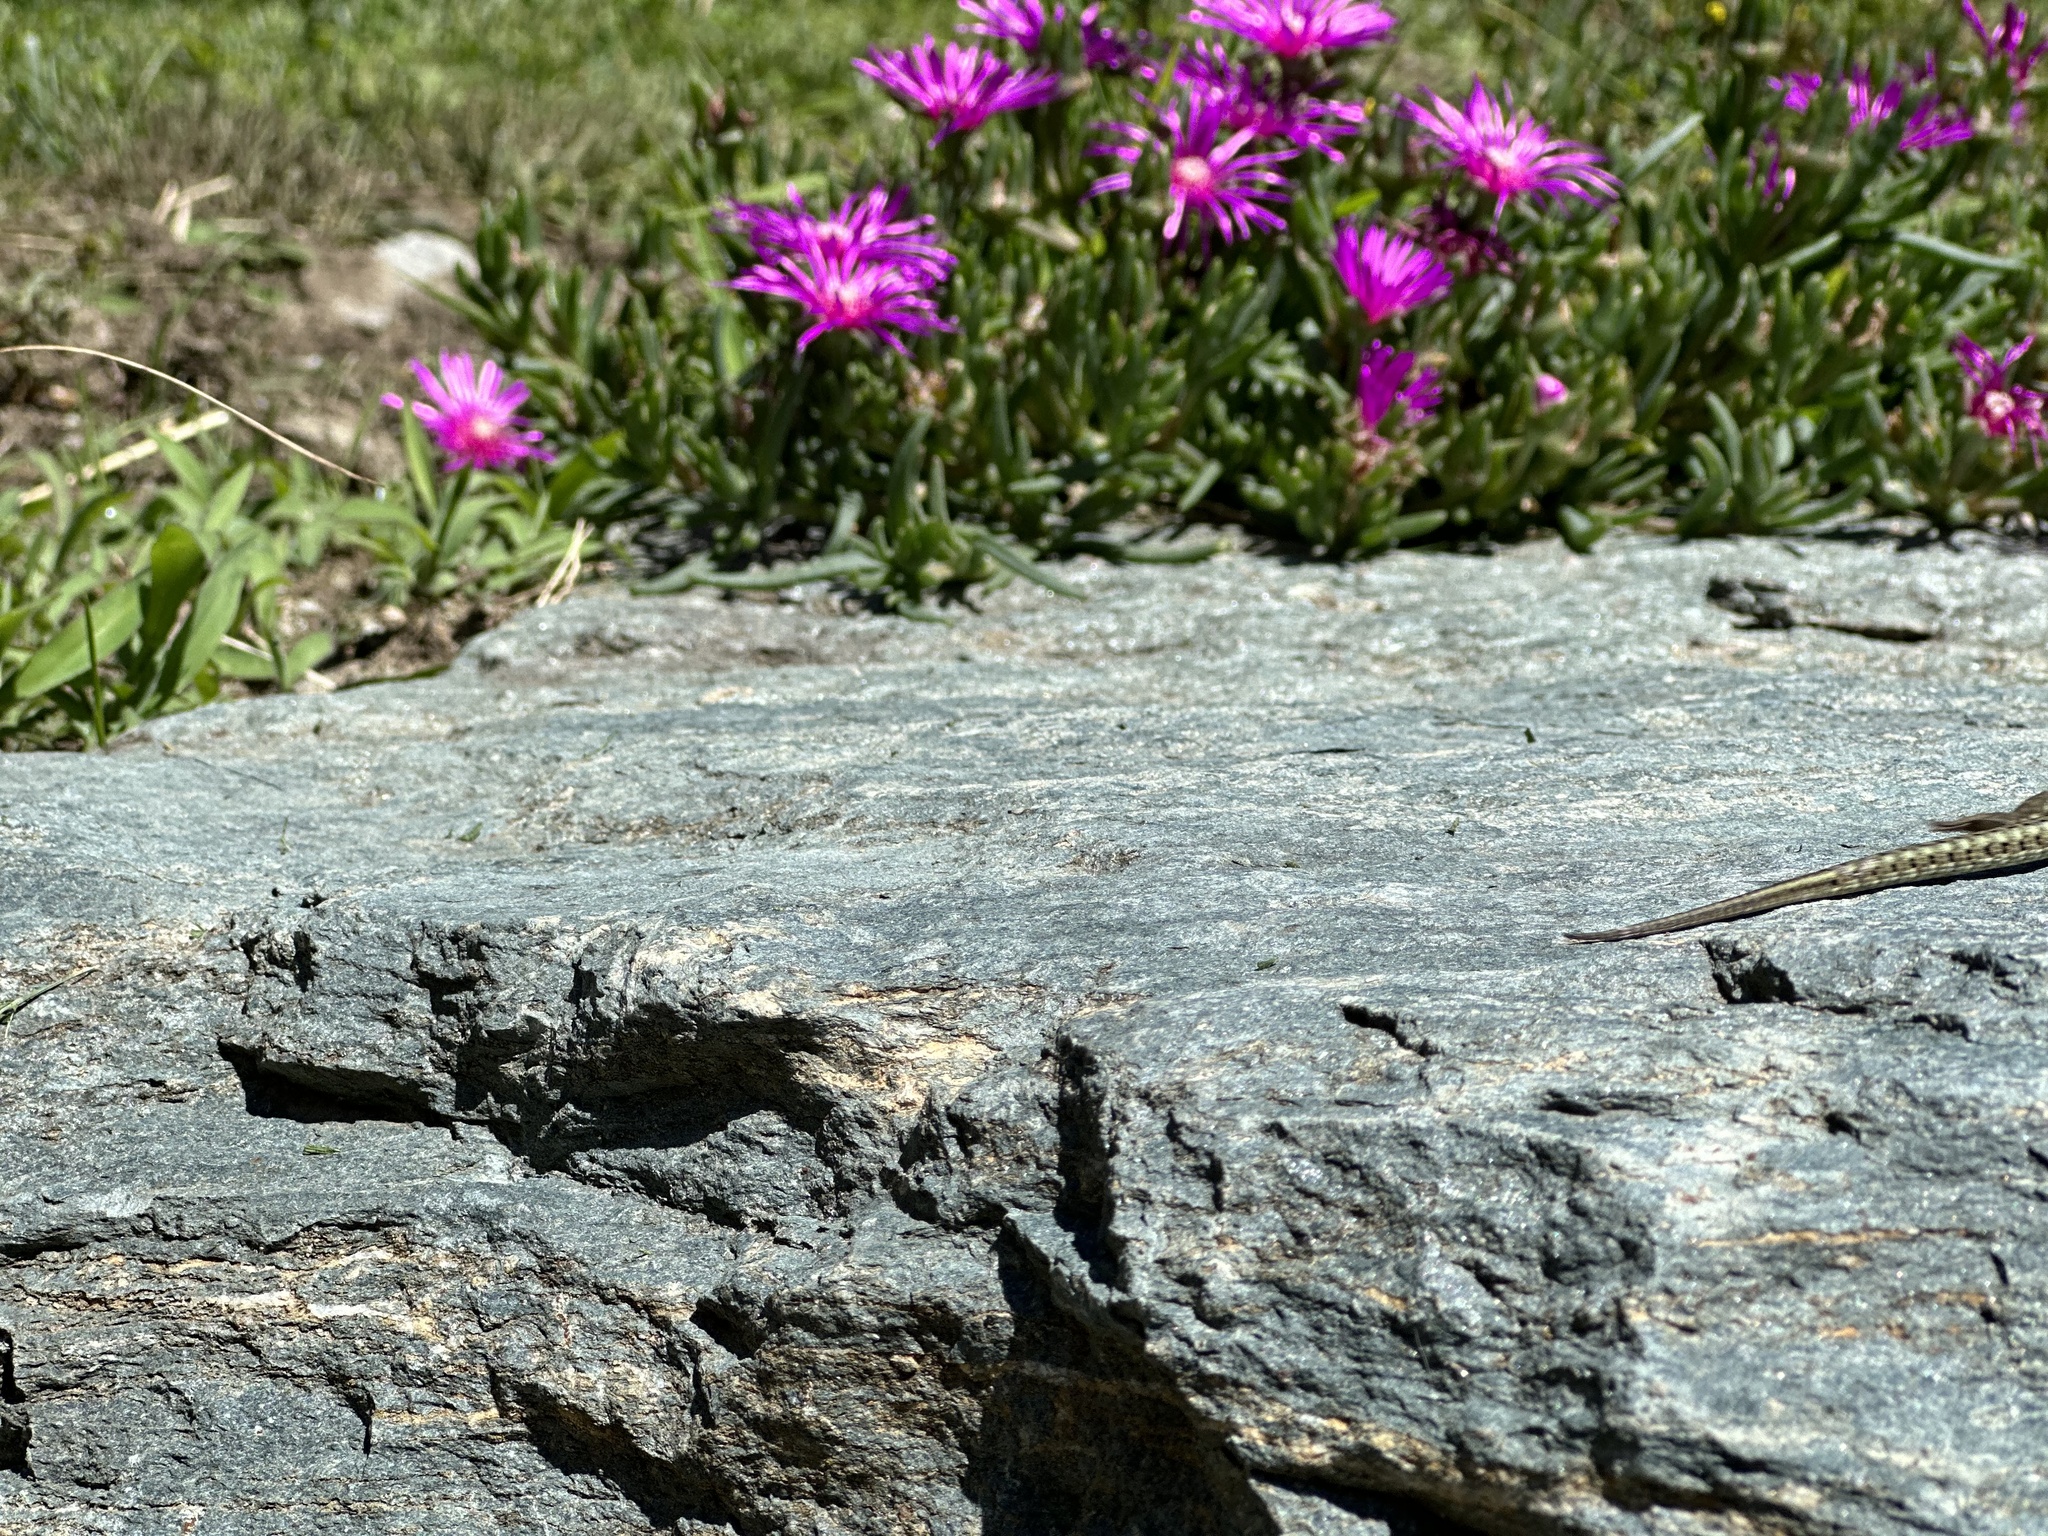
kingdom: Animalia
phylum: Chordata
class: Squamata
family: Lacertidae
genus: Podarcis
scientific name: Podarcis muralis
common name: Common wall lizard
